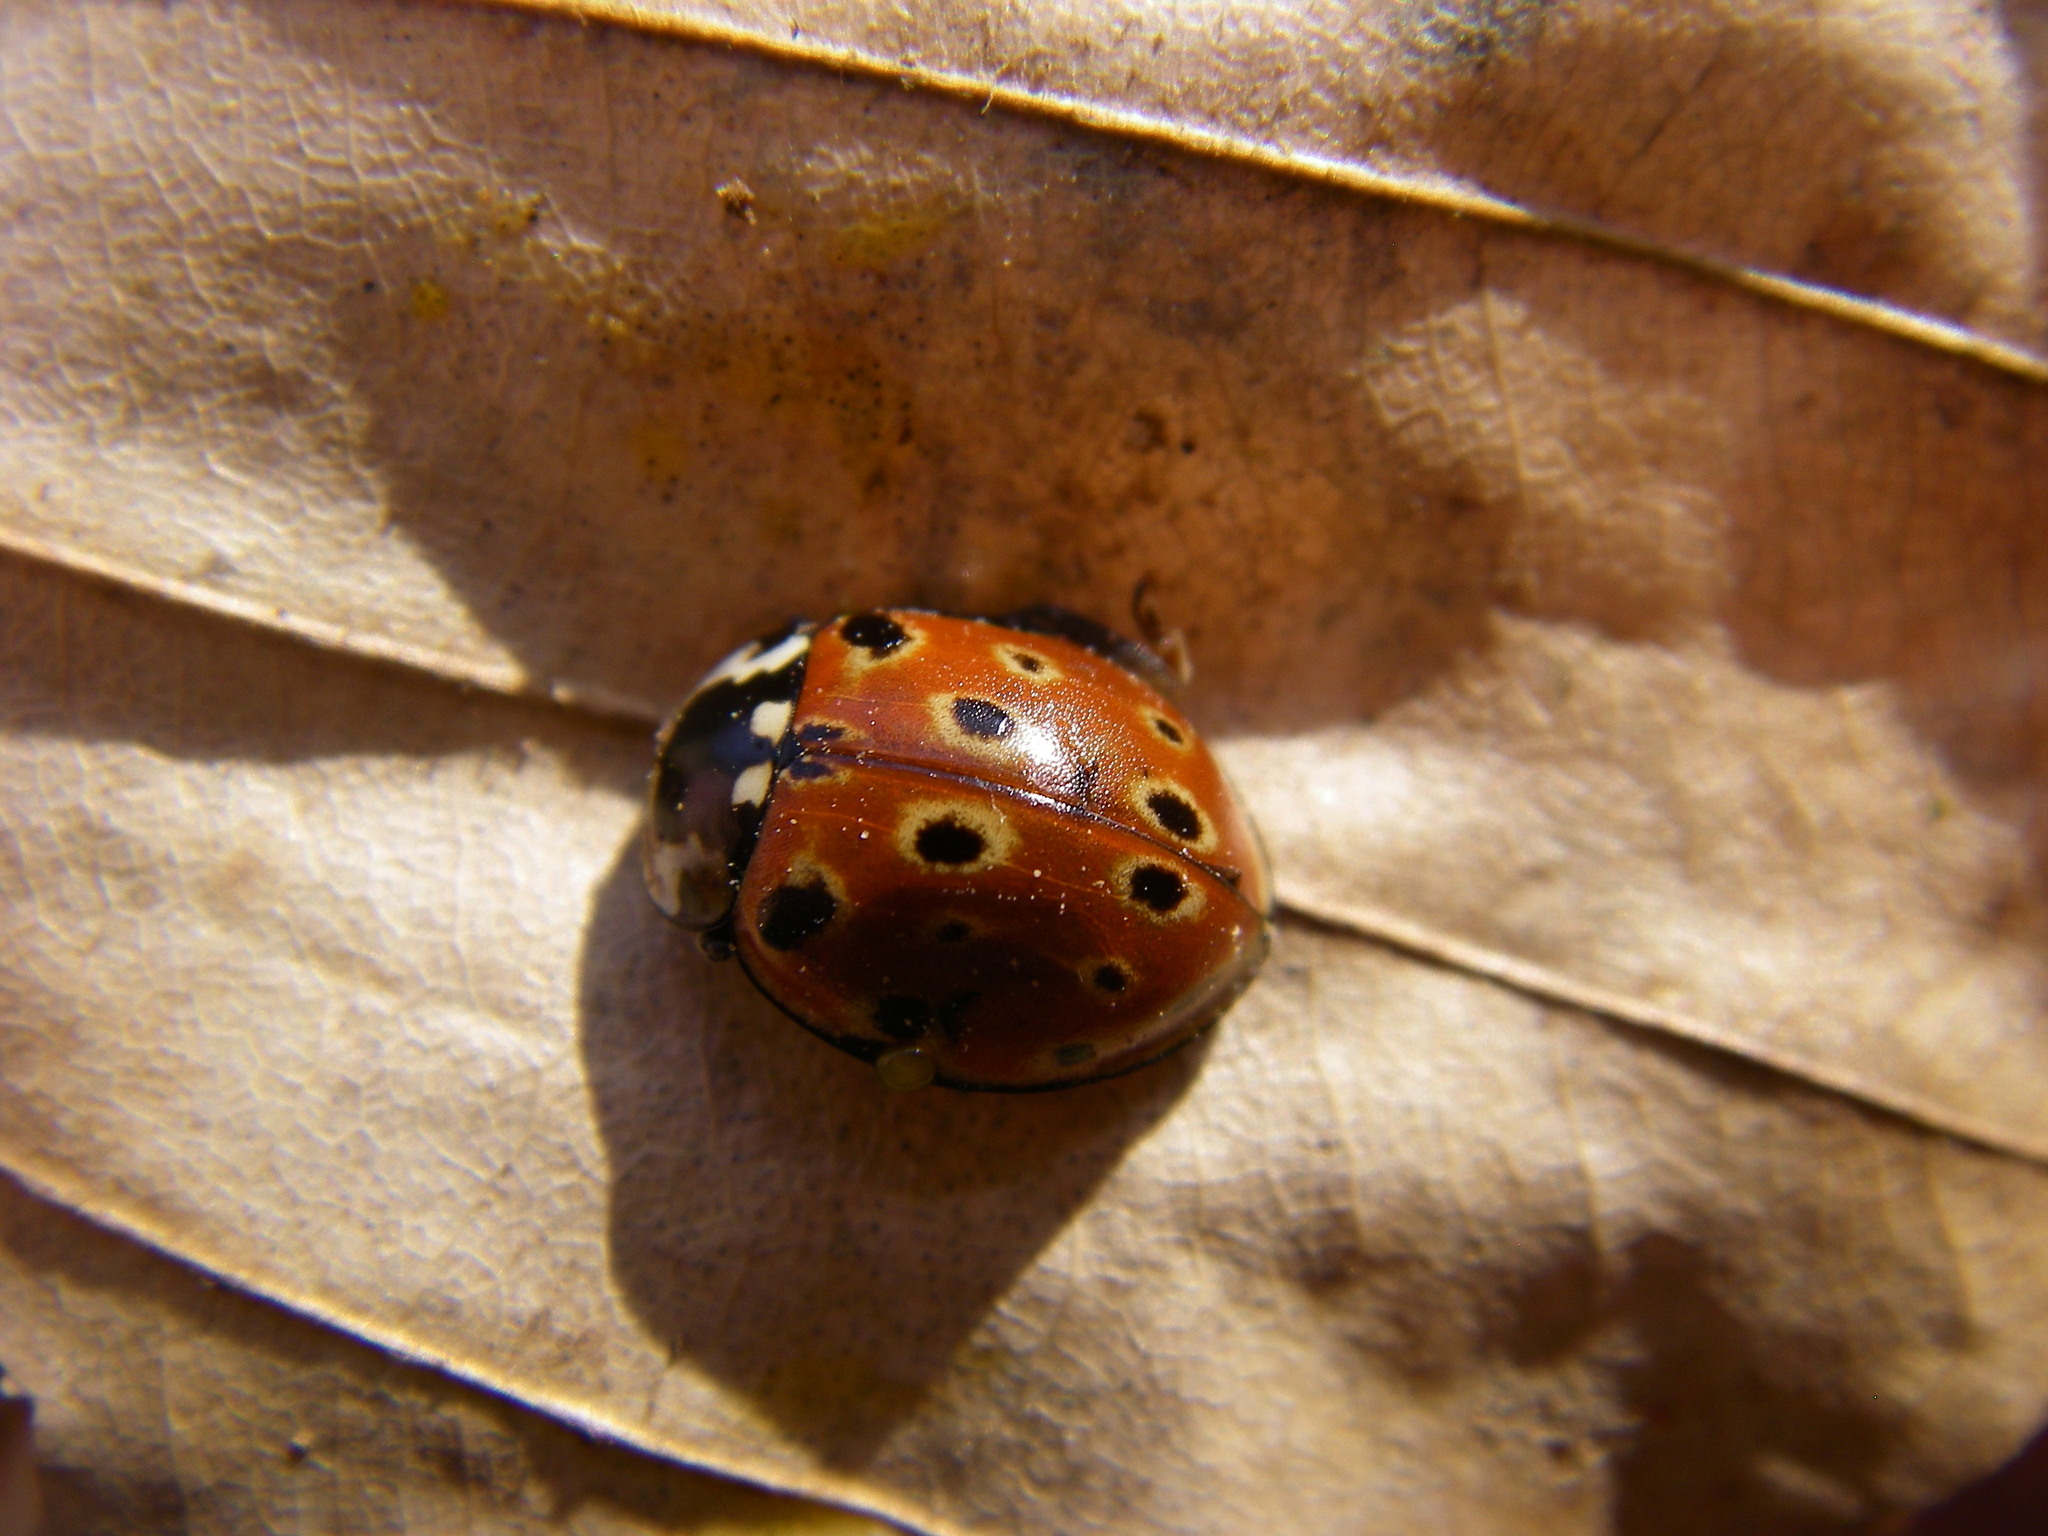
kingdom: Animalia
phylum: Arthropoda
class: Insecta
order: Coleoptera
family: Coccinellidae
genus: Anatis
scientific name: Anatis ocellata
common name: Eyed ladybird
